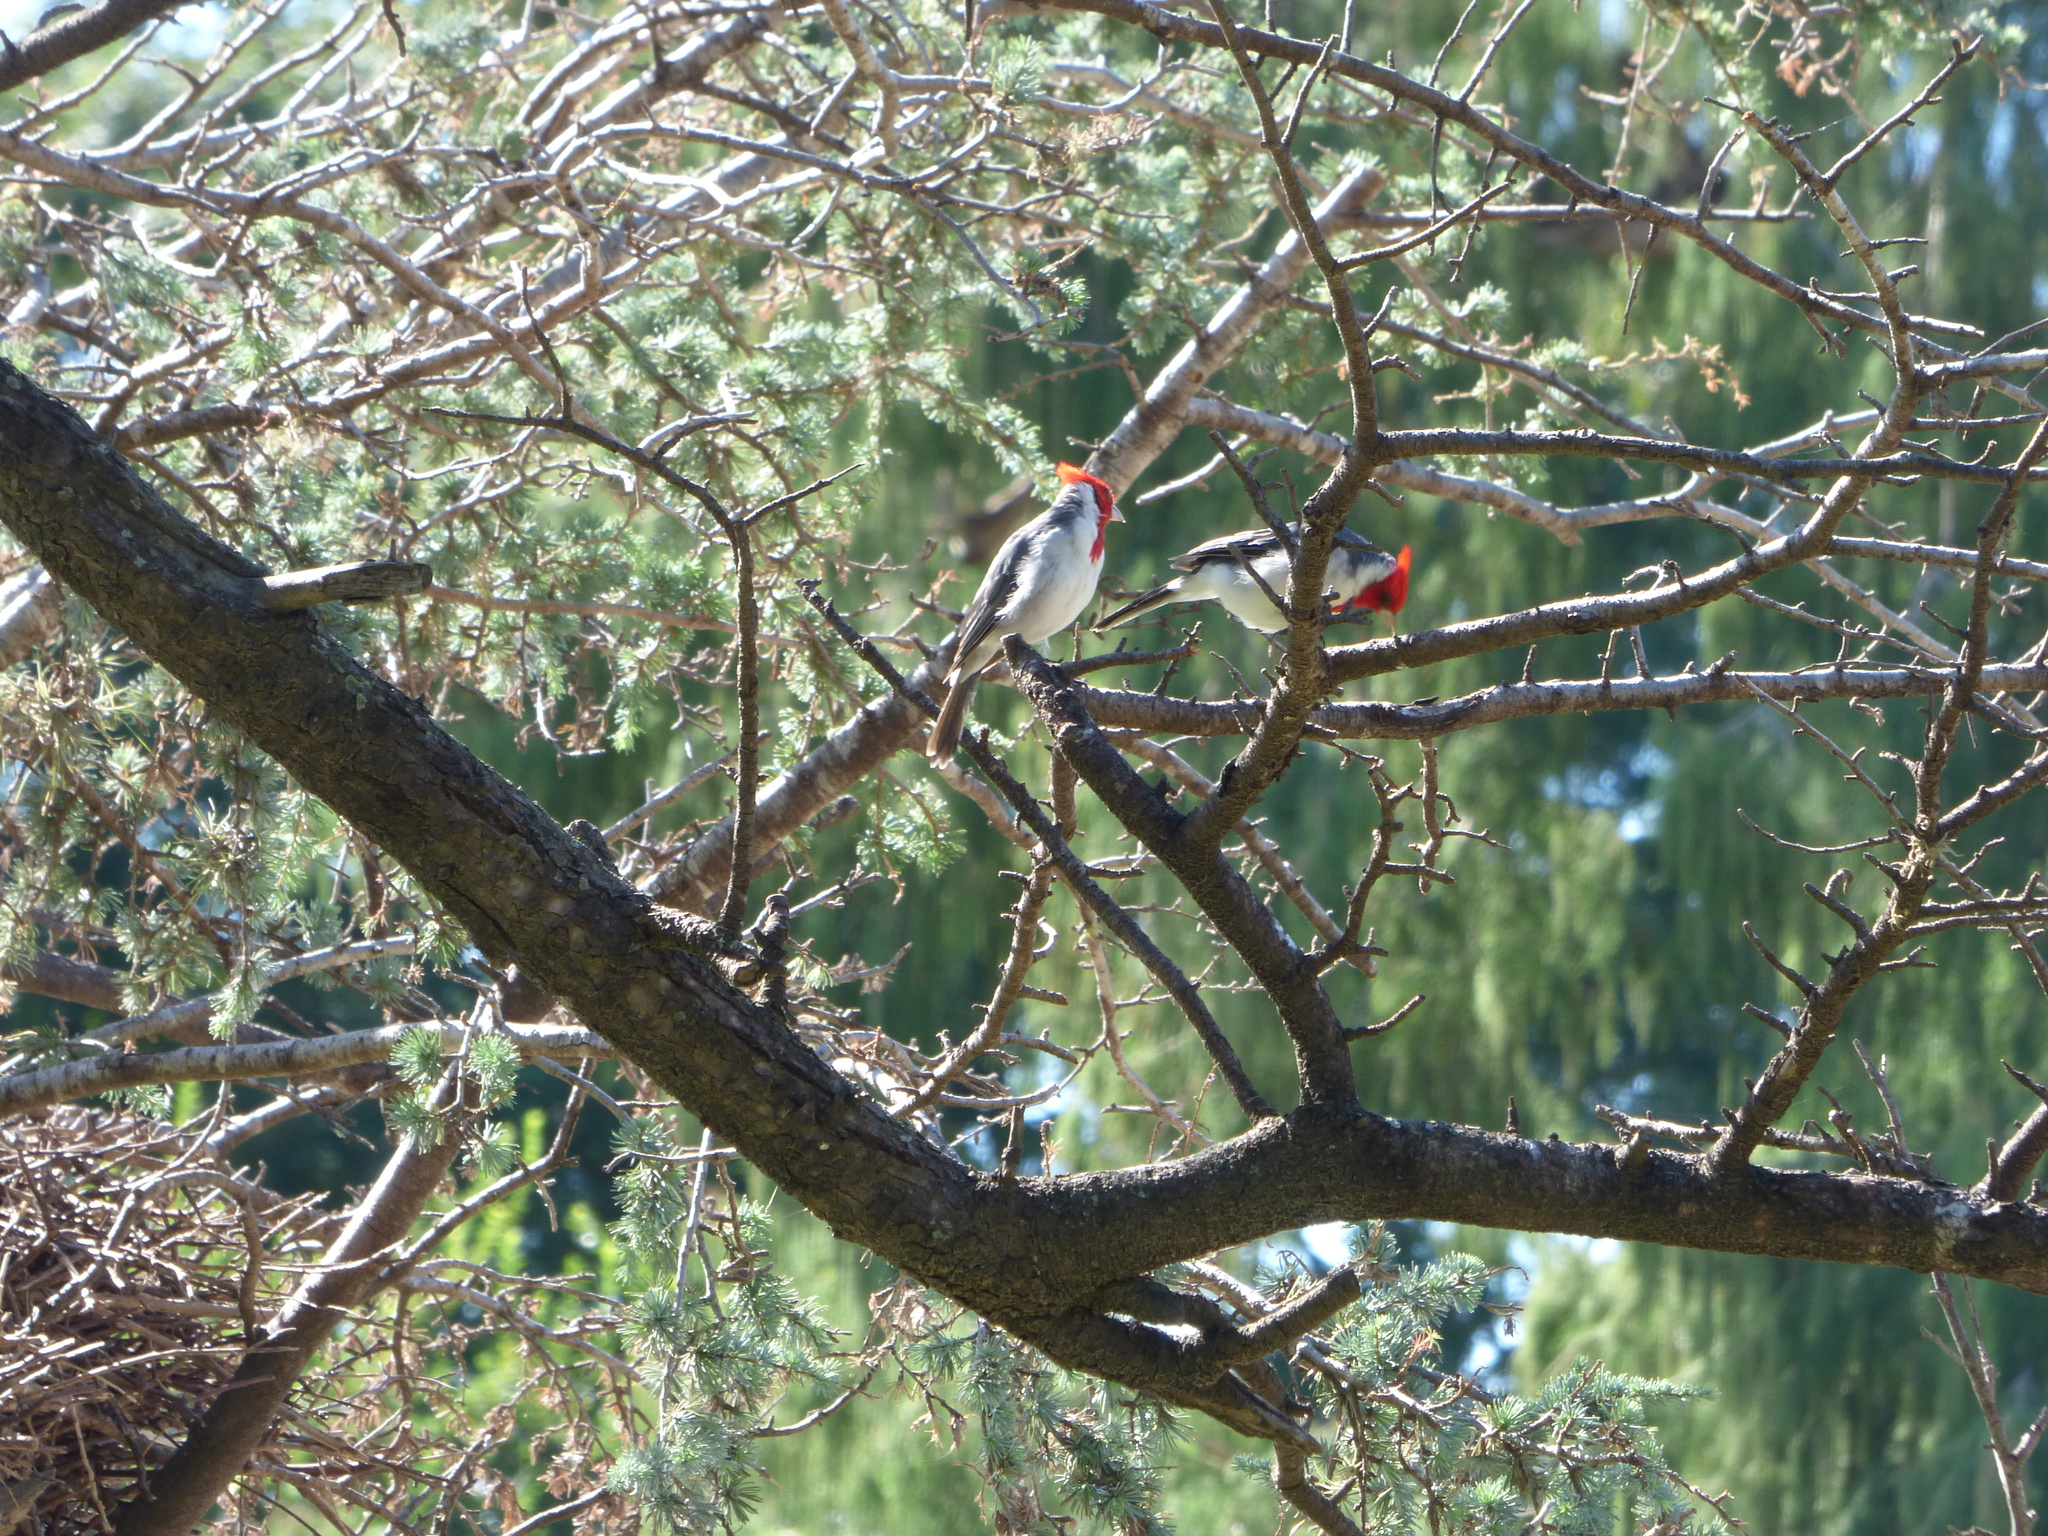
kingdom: Animalia
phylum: Chordata
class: Aves
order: Passeriformes
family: Thraupidae
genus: Paroaria
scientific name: Paroaria coronata
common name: Red-crested cardinal
